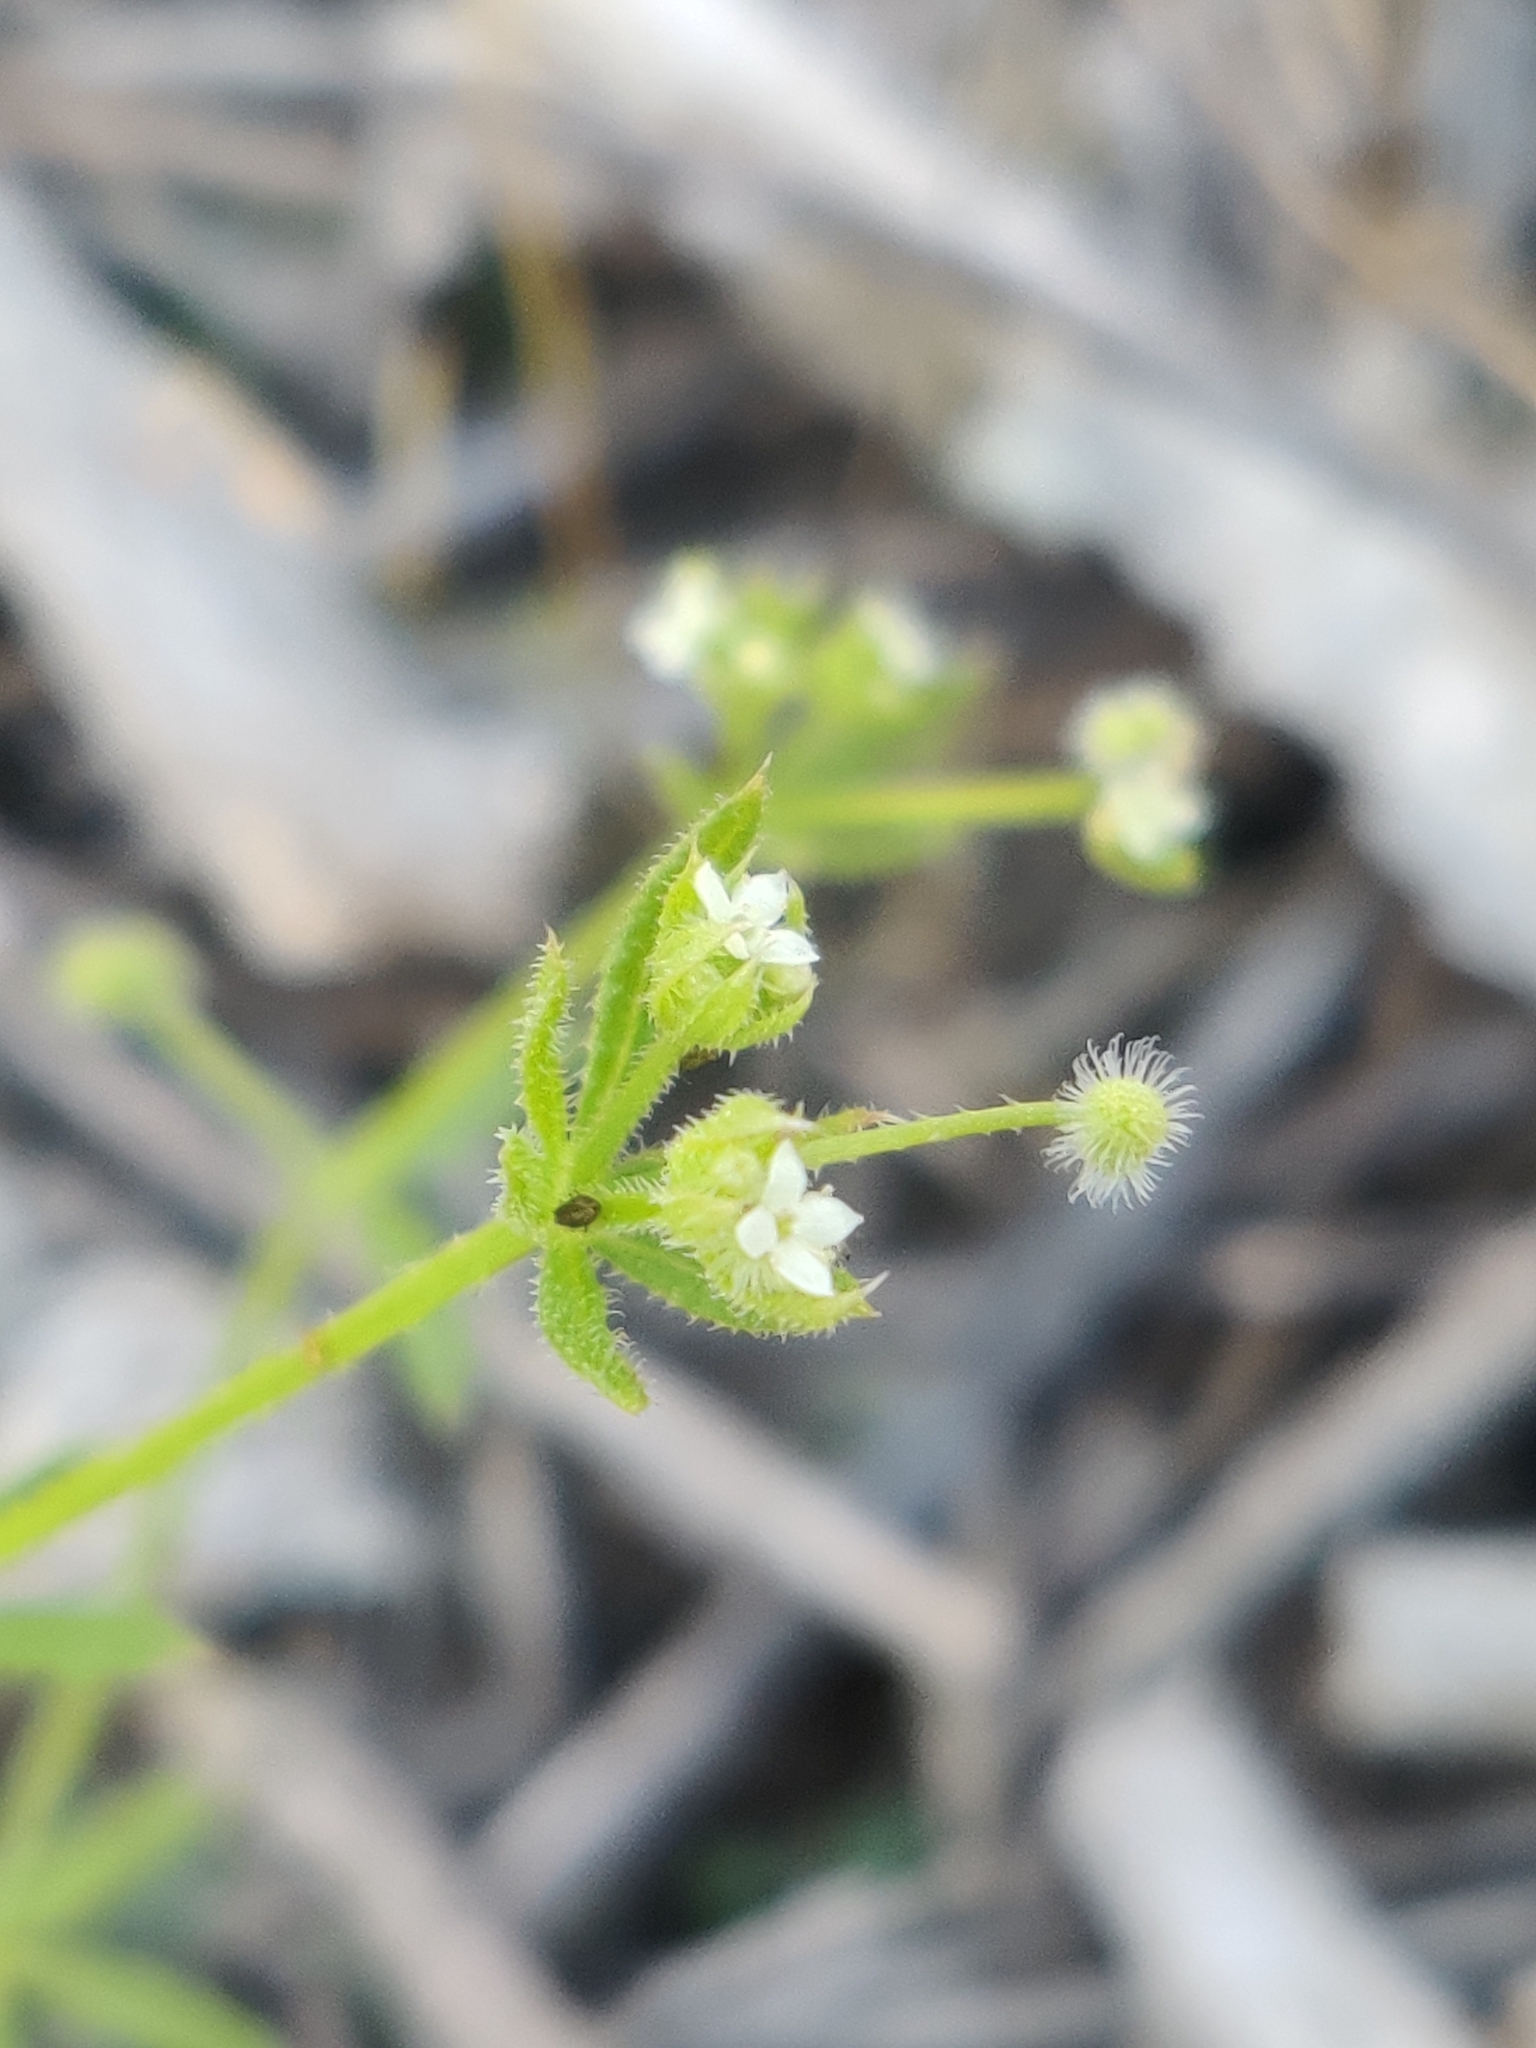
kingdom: Plantae
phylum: Tracheophyta
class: Magnoliopsida
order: Gentianales
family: Rubiaceae
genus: Galium
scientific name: Galium aparine
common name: Cleavers
